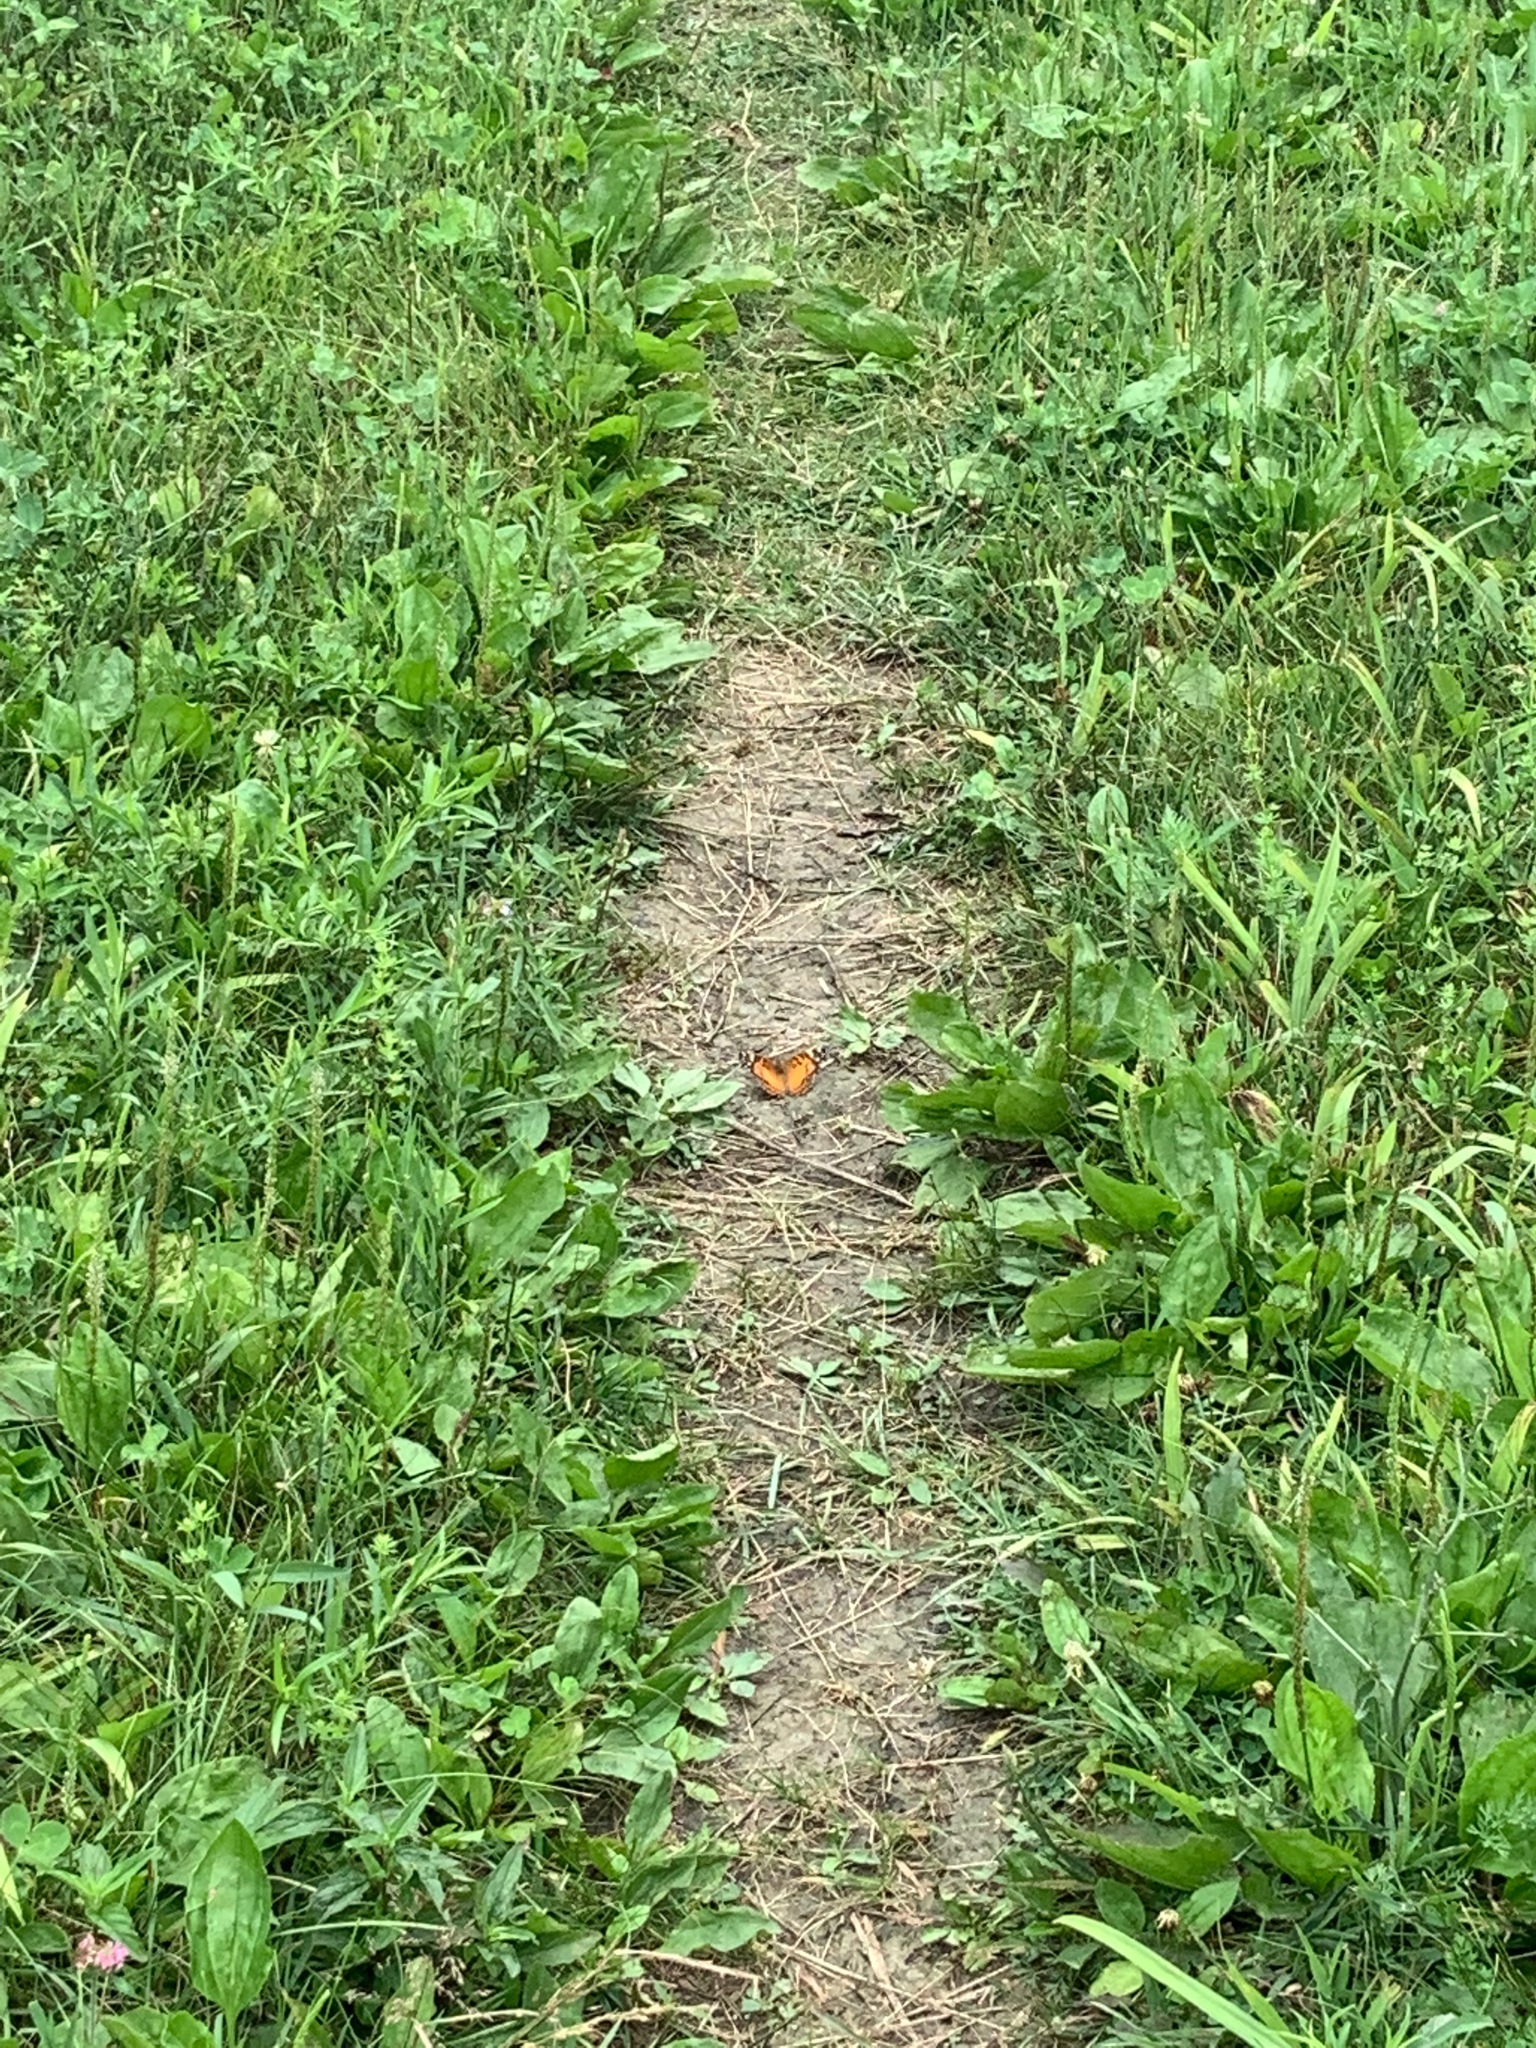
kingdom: Animalia
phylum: Arthropoda
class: Insecta
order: Lepidoptera
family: Nymphalidae
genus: Vanessa
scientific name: Vanessa virginiensis
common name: American lady
